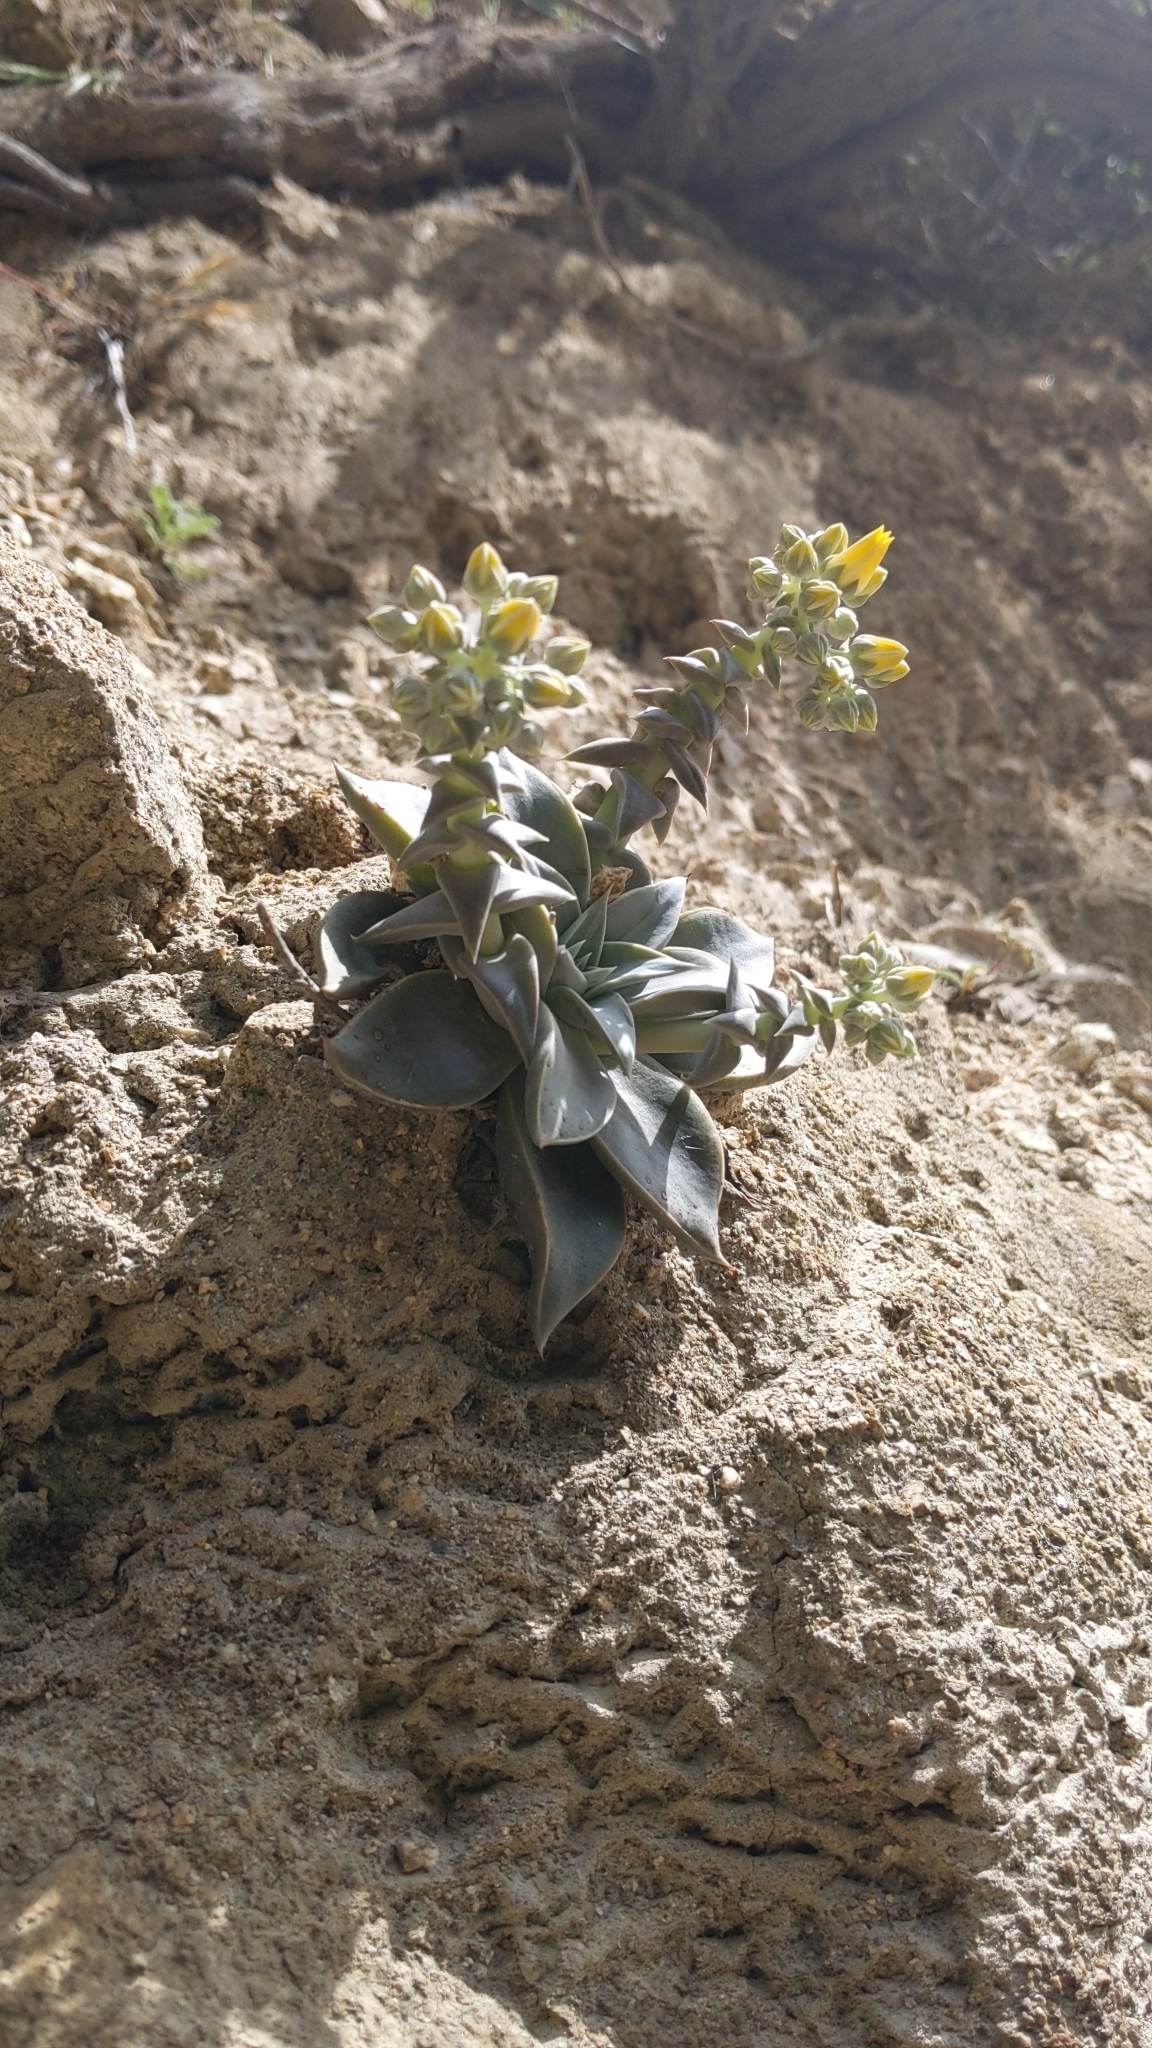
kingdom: Plantae
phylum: Tracheophyta
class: Magnoliopsida
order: Saxifragales
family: Crassulaceae
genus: Dudleya
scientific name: Dudleya cymosa
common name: Canyon dudleya
